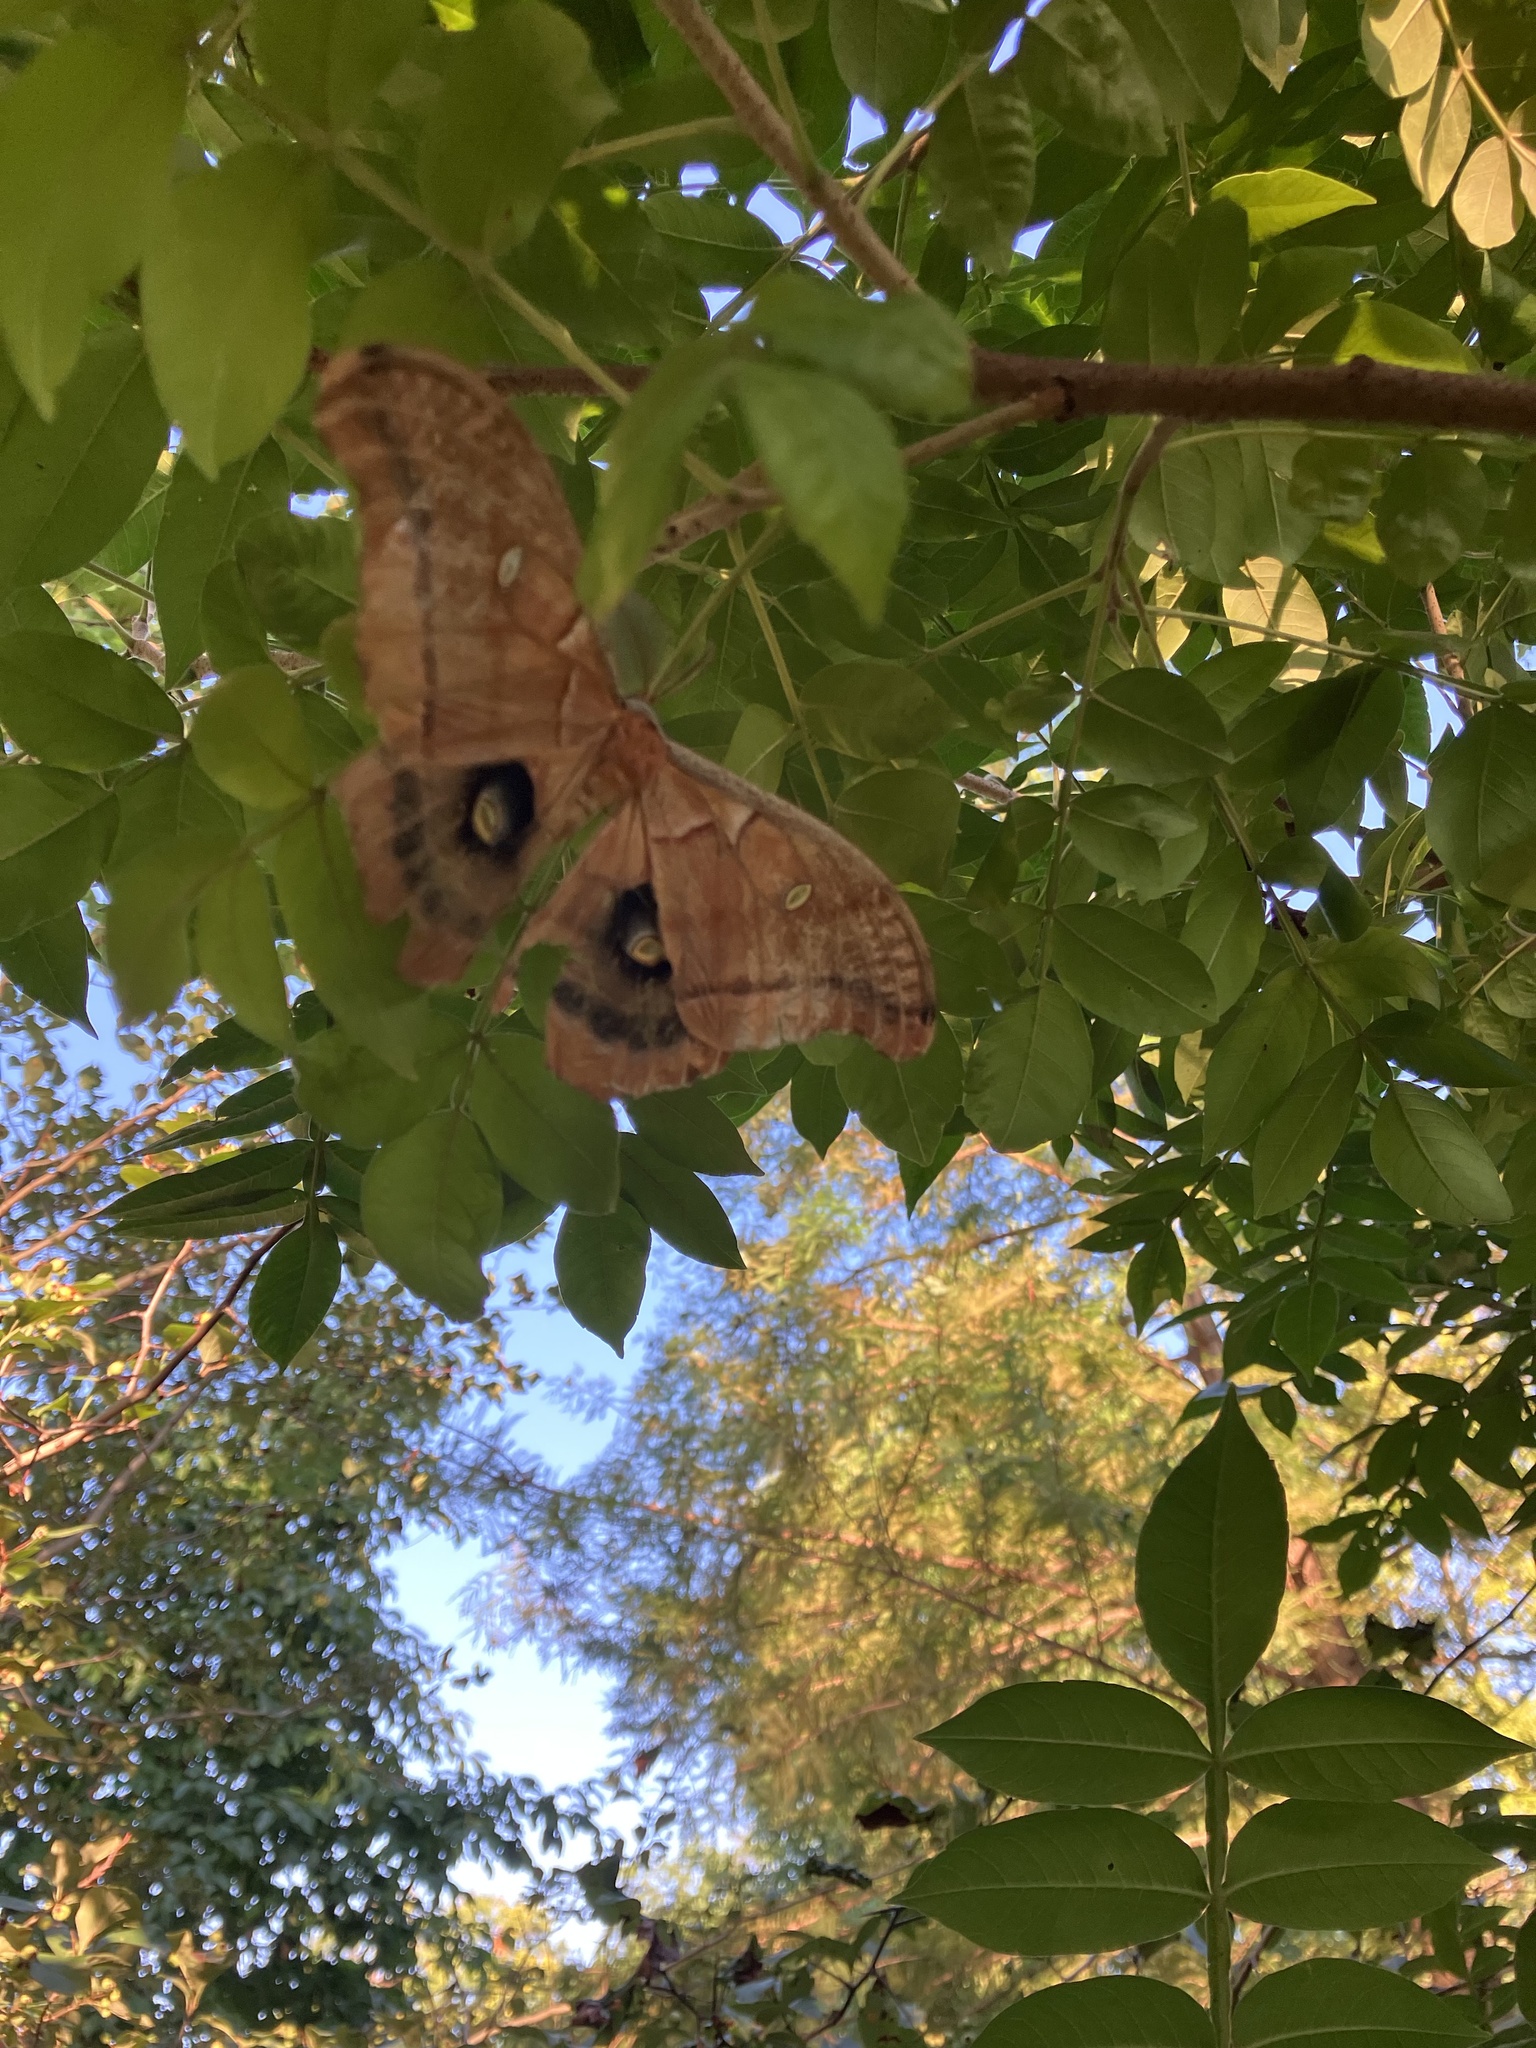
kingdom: Animalia
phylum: Arthropoda
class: Insecta
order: Lepidoptera
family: Saturniidae
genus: Antheraea
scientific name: Antheraea polyphemus
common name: Polyphemus moth
